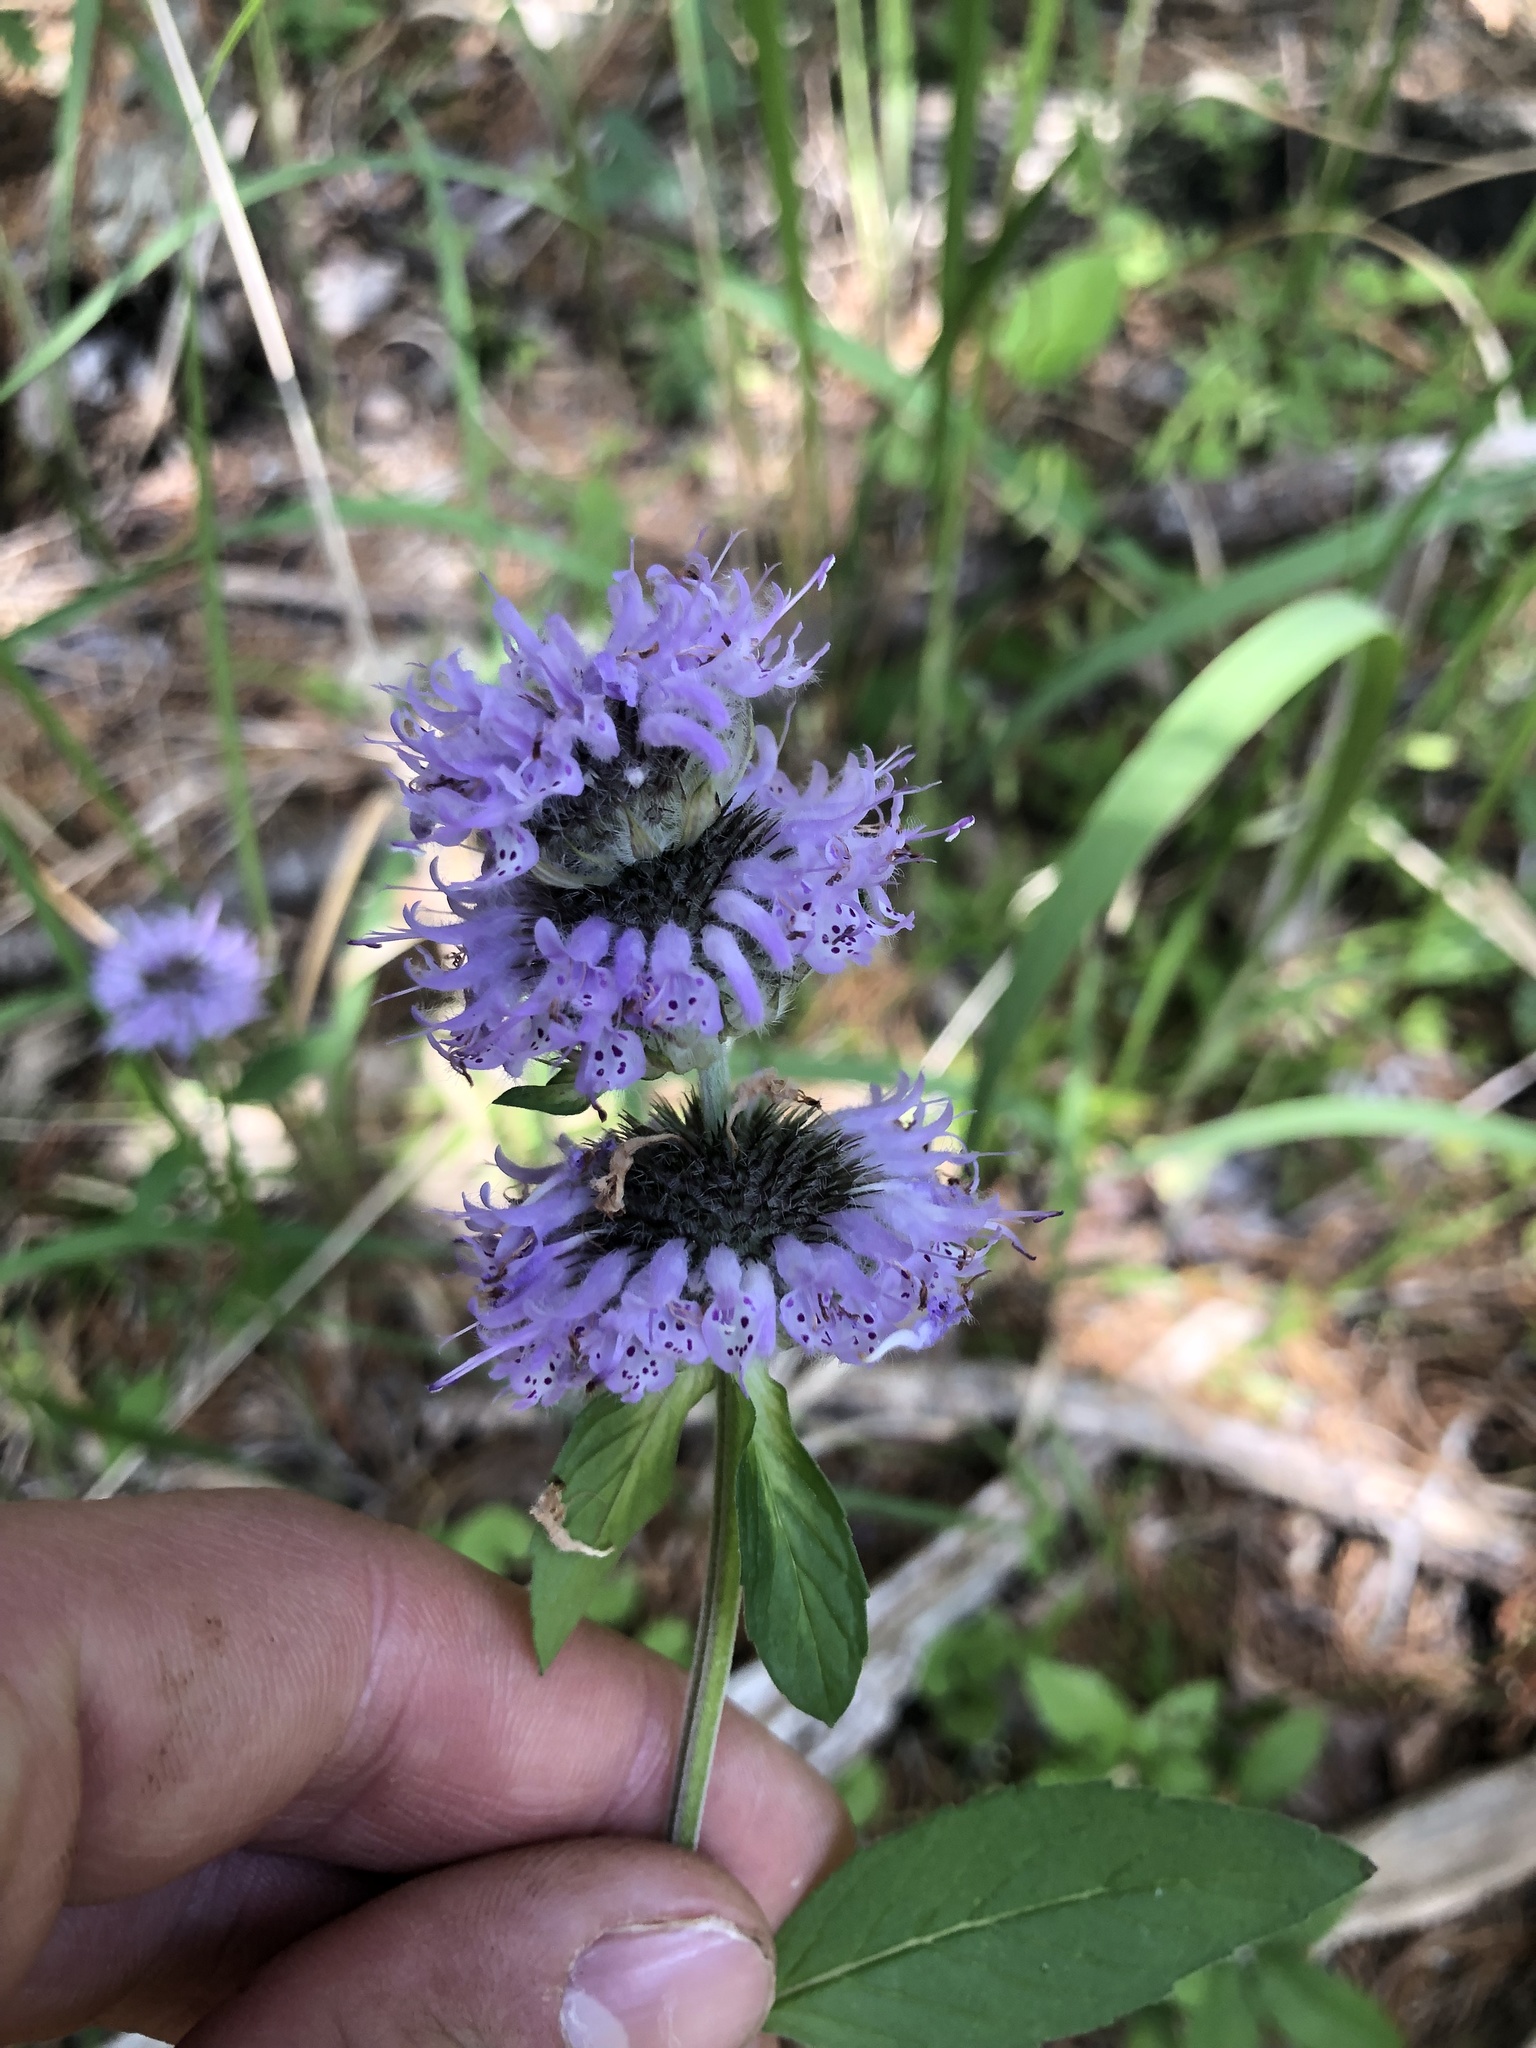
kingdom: Plantae
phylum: Tracheophyta
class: Magnoliopsida
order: Lamiales
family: Lamiaceae
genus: Blephilia
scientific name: Blephilia ciliata
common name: Downy blephilia
